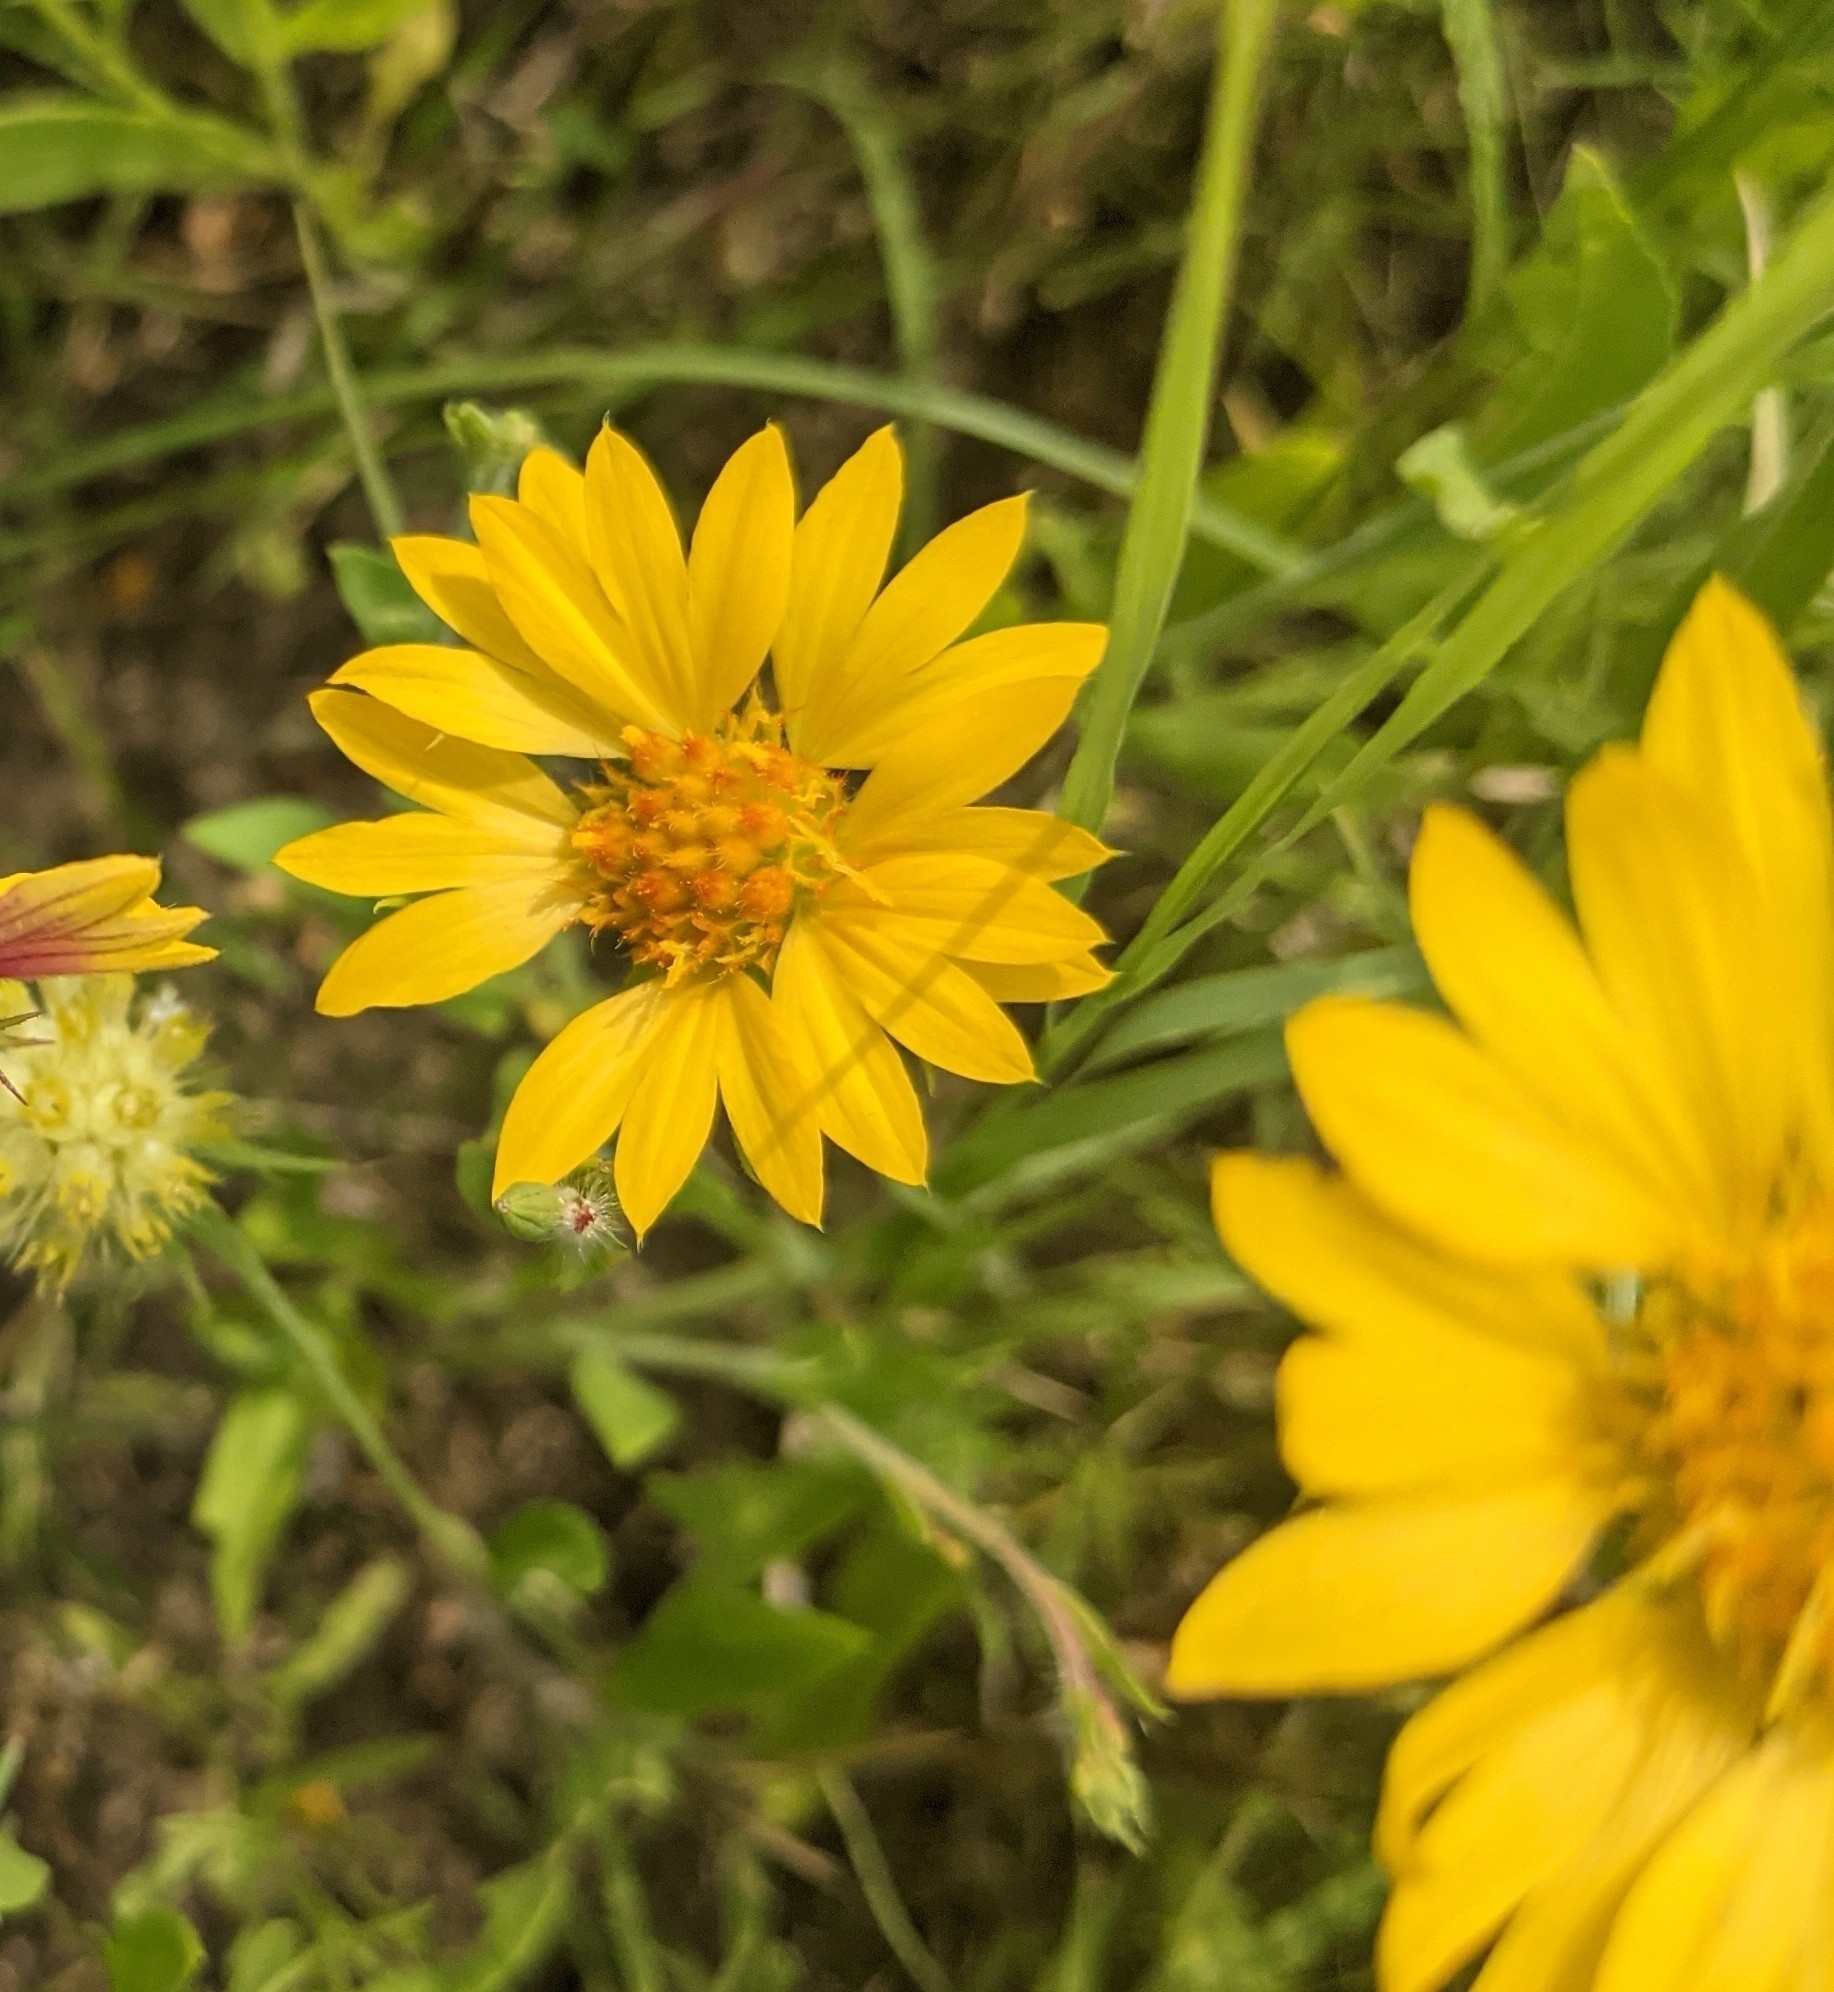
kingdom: Plantae
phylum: Tracheophyta
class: Magnoliopsida
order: Asterales
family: Asteraceae
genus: Gaillardia
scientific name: Gaillardia pulchella
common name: Firewheel
